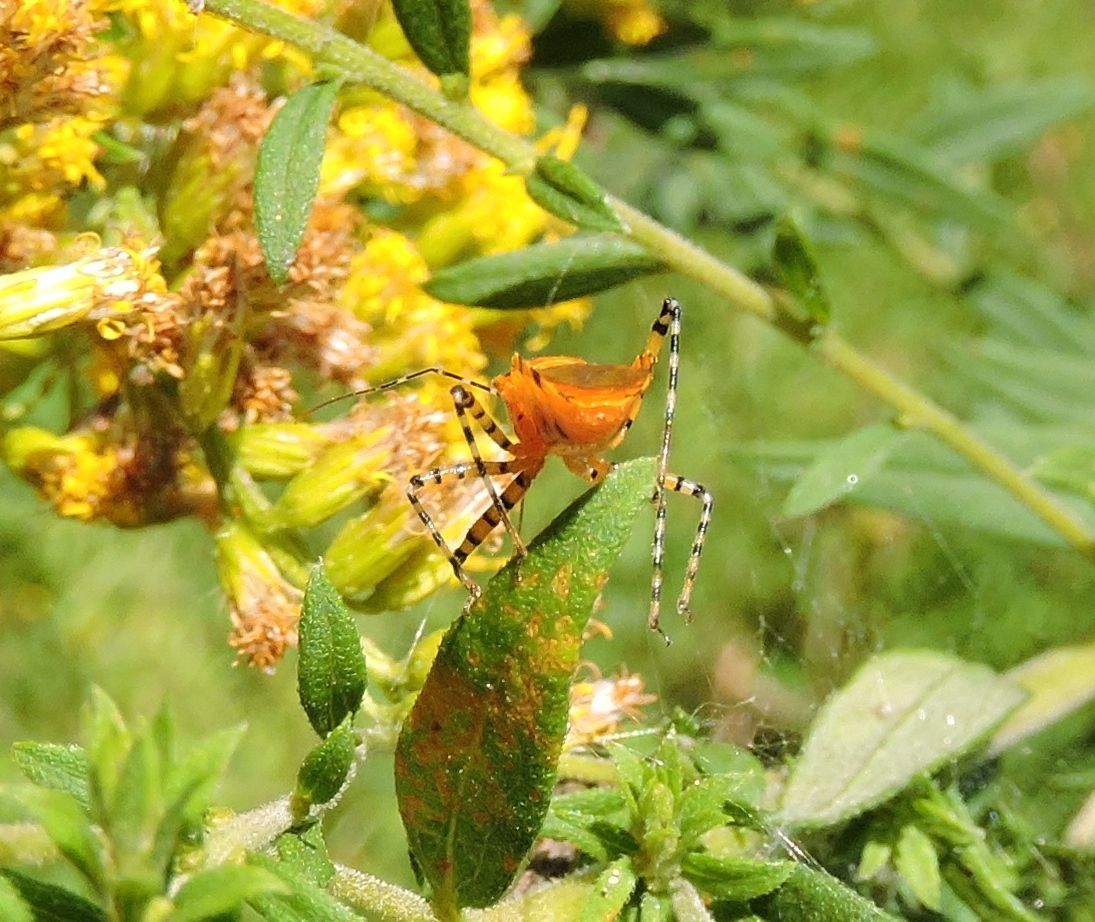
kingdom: Animalia
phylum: Arthropoda
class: Insecta
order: Hemiptera
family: Reduviidae
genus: Pselliopus
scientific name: Pselliopus barberi
